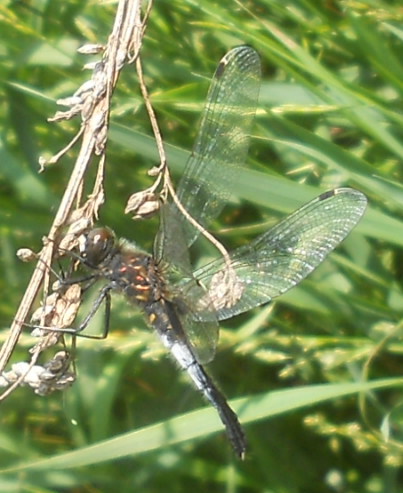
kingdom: Animalia
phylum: Arthropoda
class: Insecta
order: Odonata
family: Libellulidae
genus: Leucorrhinia
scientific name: Leucorrhinia albifrons
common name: Dark whiteface
